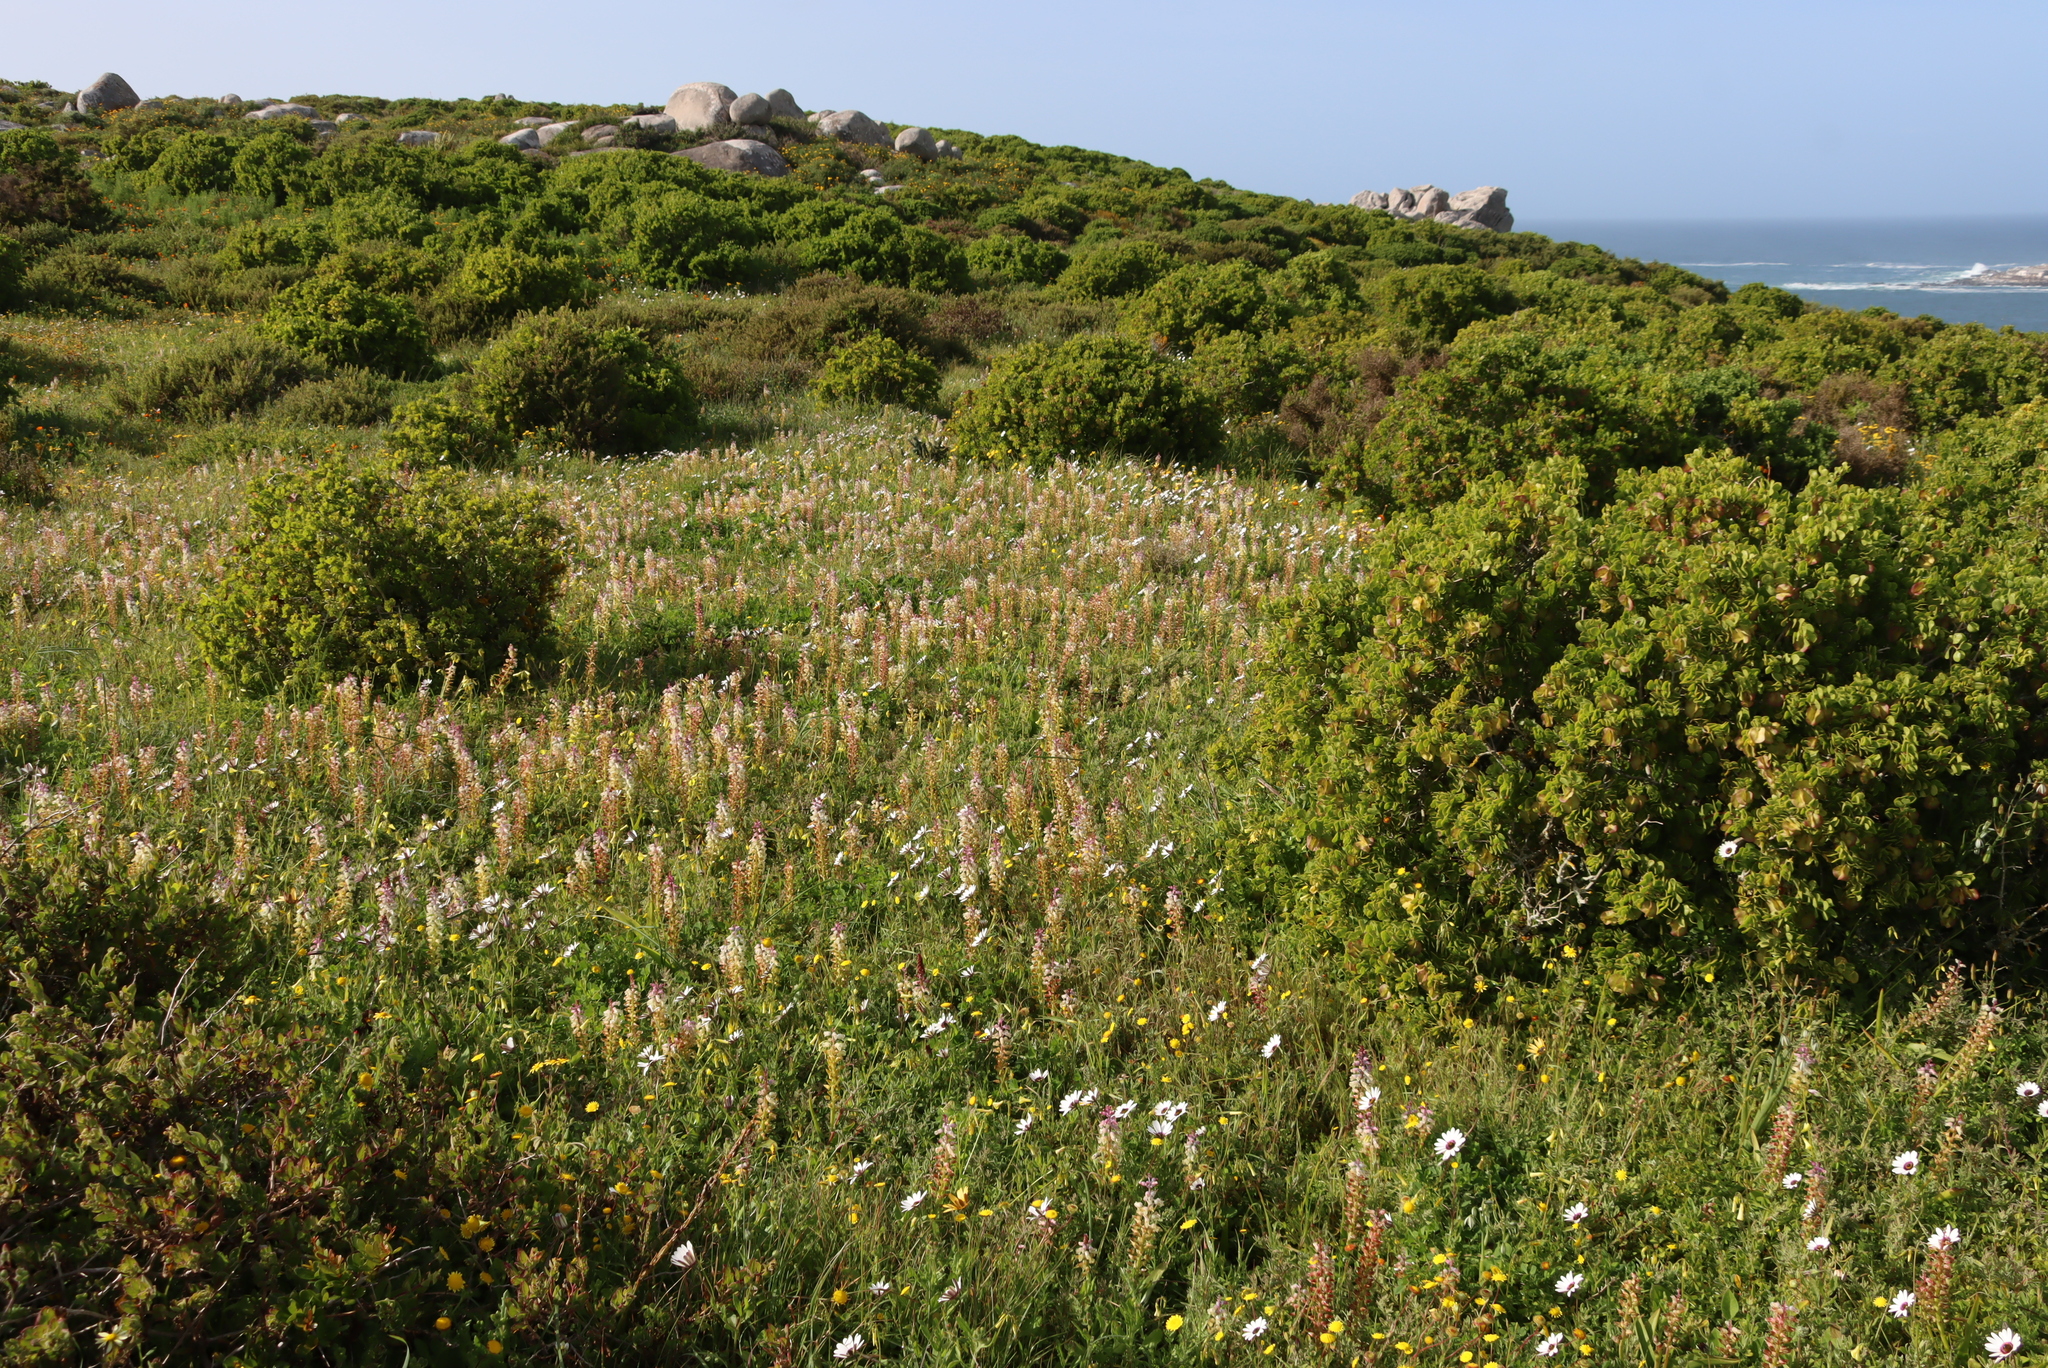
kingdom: Plantae
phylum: Tracheophyta
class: Liliopsida
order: Asparagales
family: Asparagaceae
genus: Lachenalia
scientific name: Lachenalia pallida
